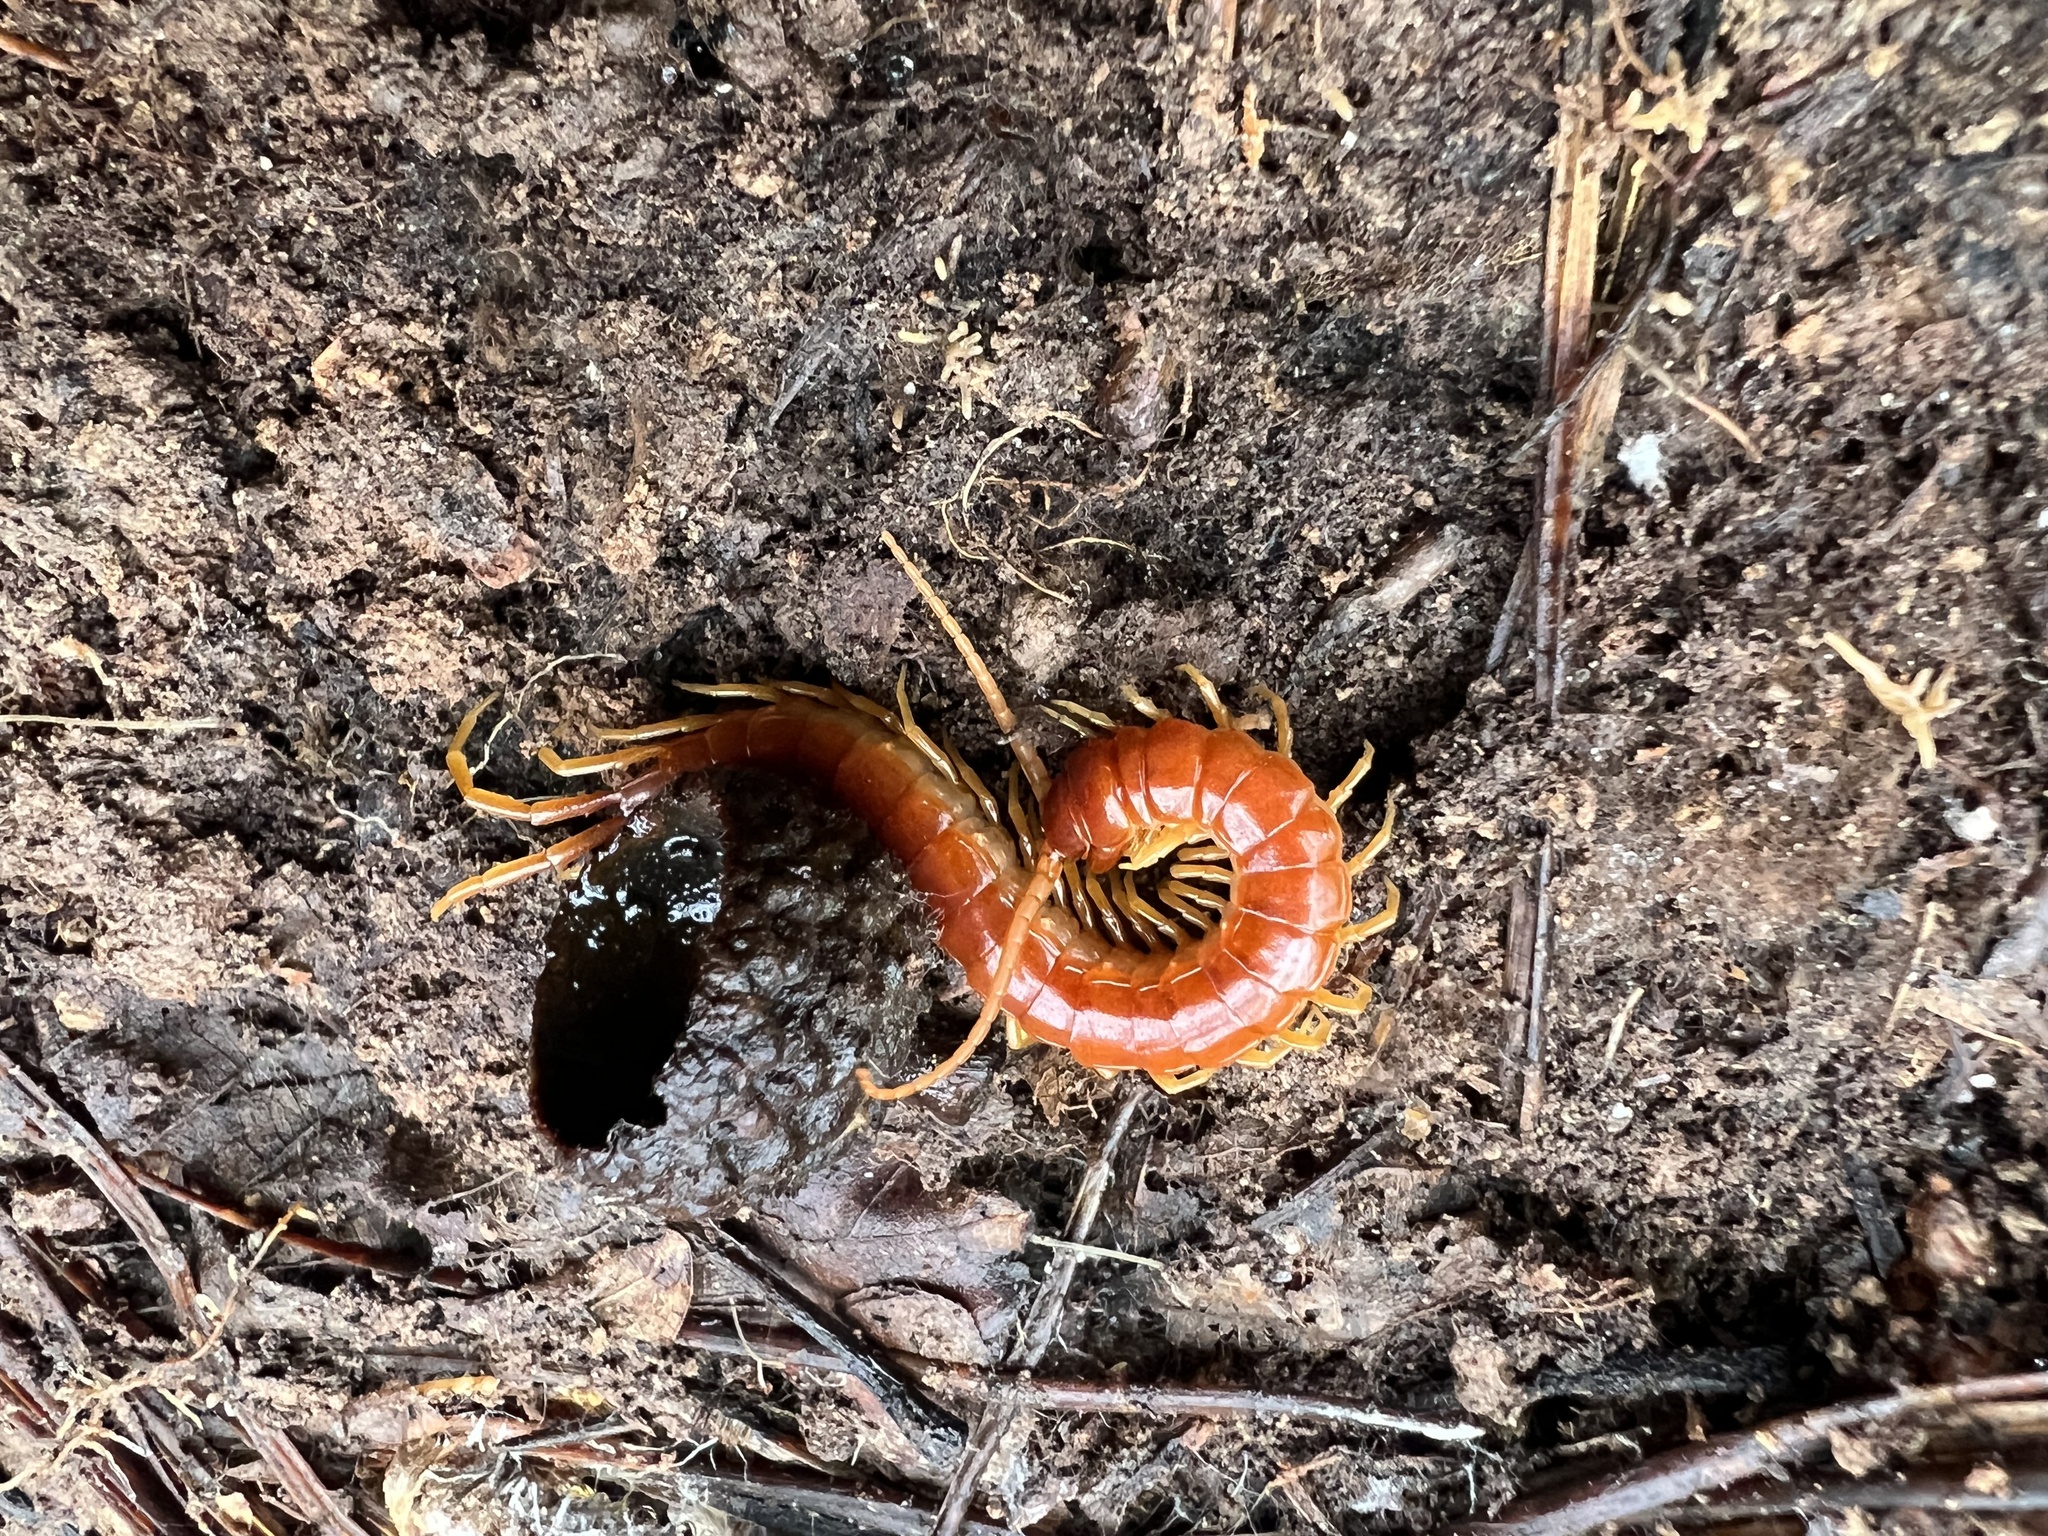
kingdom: Animalia
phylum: Arthropoda
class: Chilopoda
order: Scolopendromorpha
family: Scolopocryptopidae
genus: Scolopocryptops
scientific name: Scolopocryptops sexspinosus
